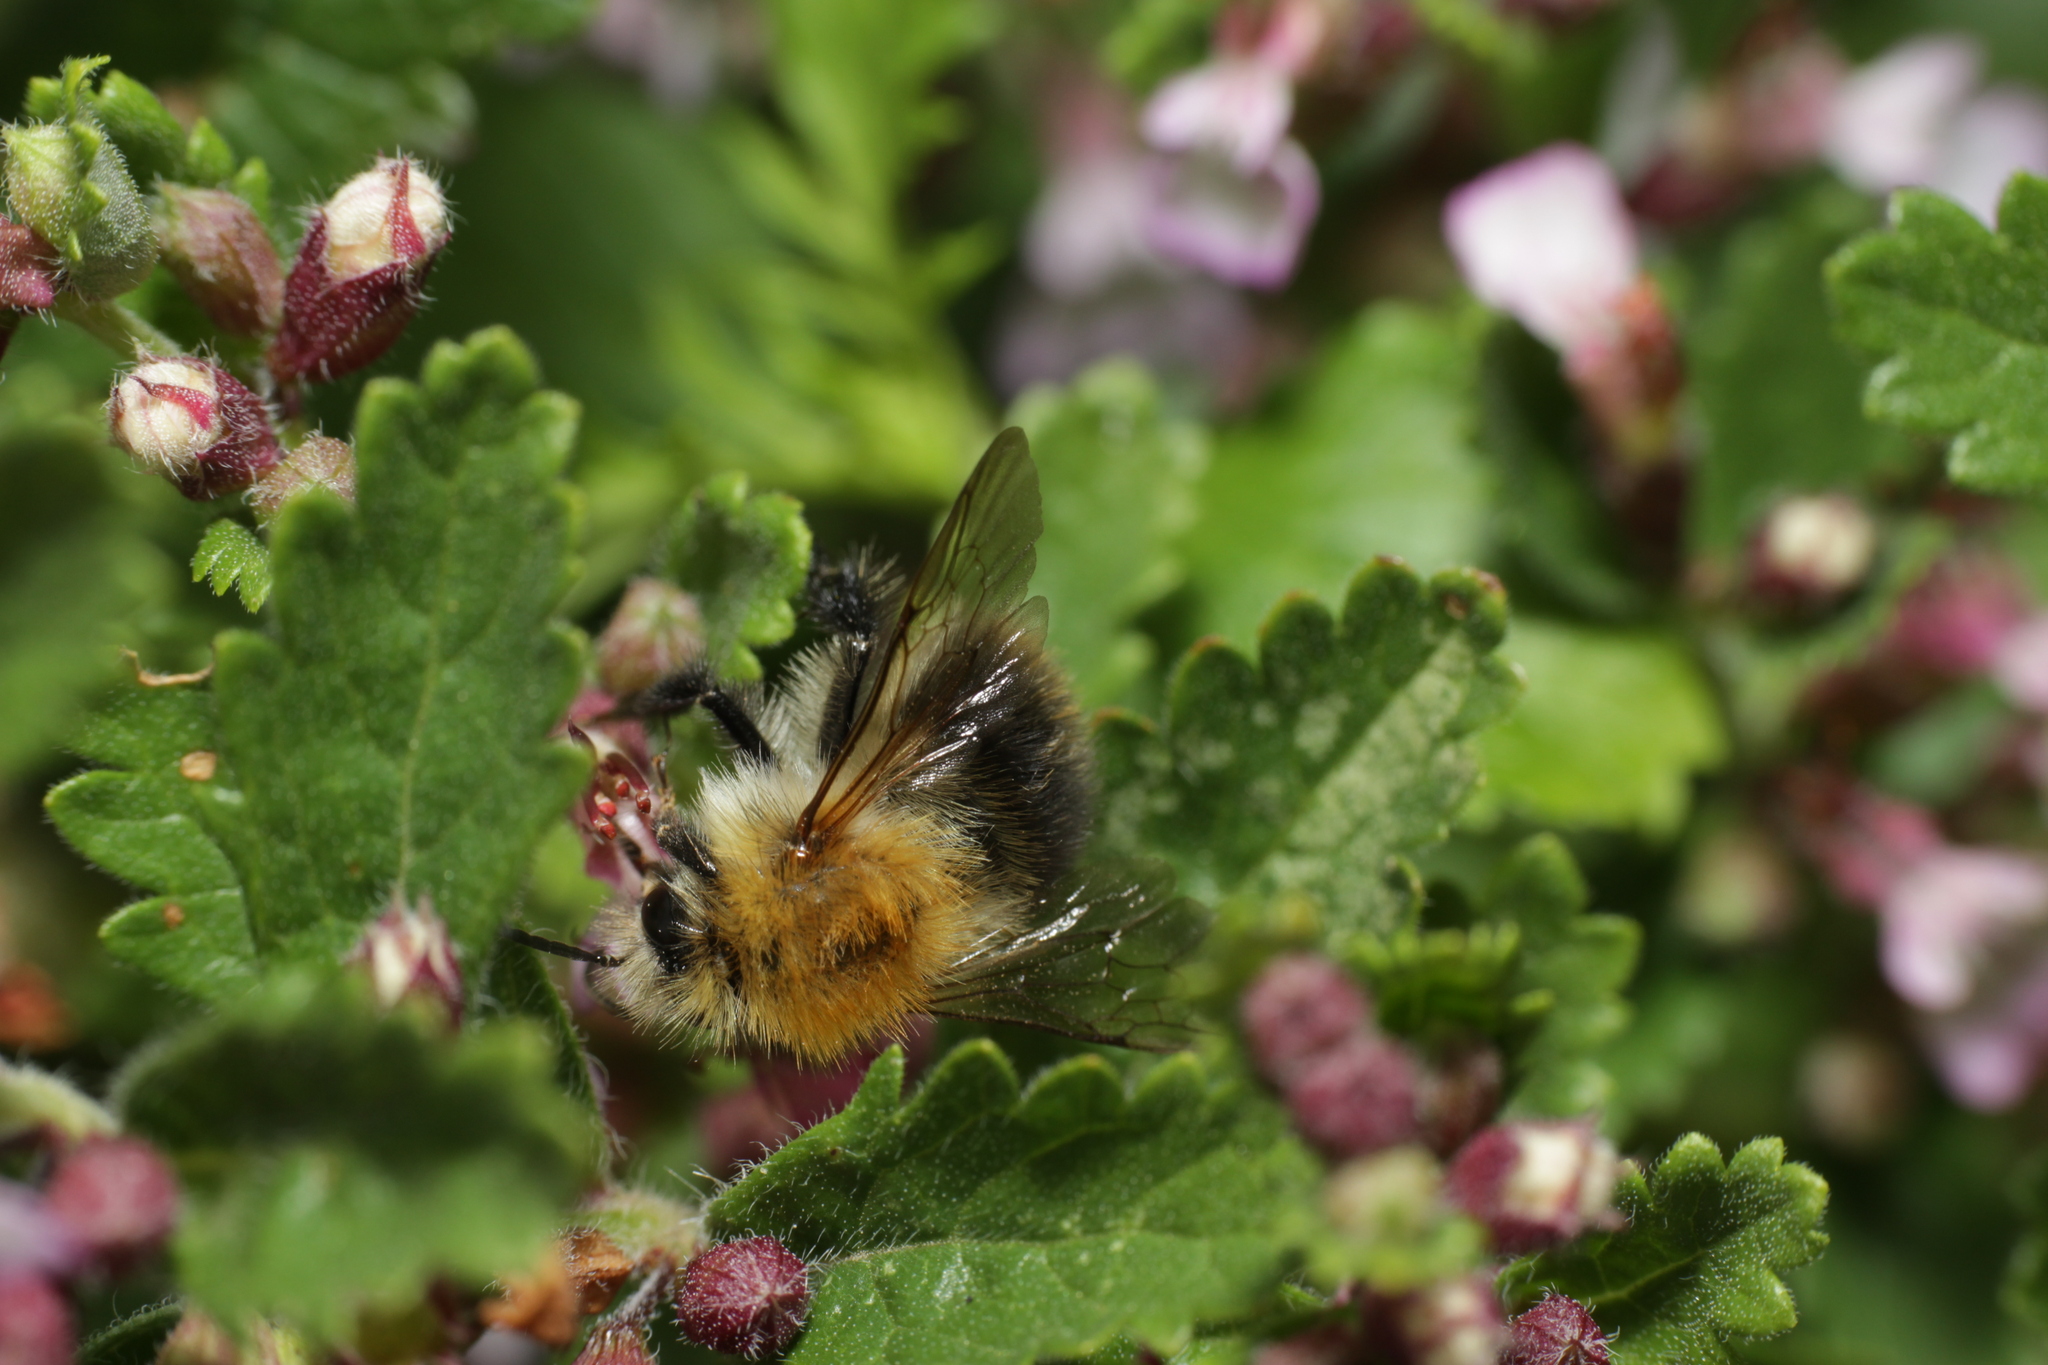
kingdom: Animalia
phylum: Arthropoda
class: Insecta
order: Hymenoptera
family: Apidae
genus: Bombus
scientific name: Bombus pascuorum
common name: Common carder bee
